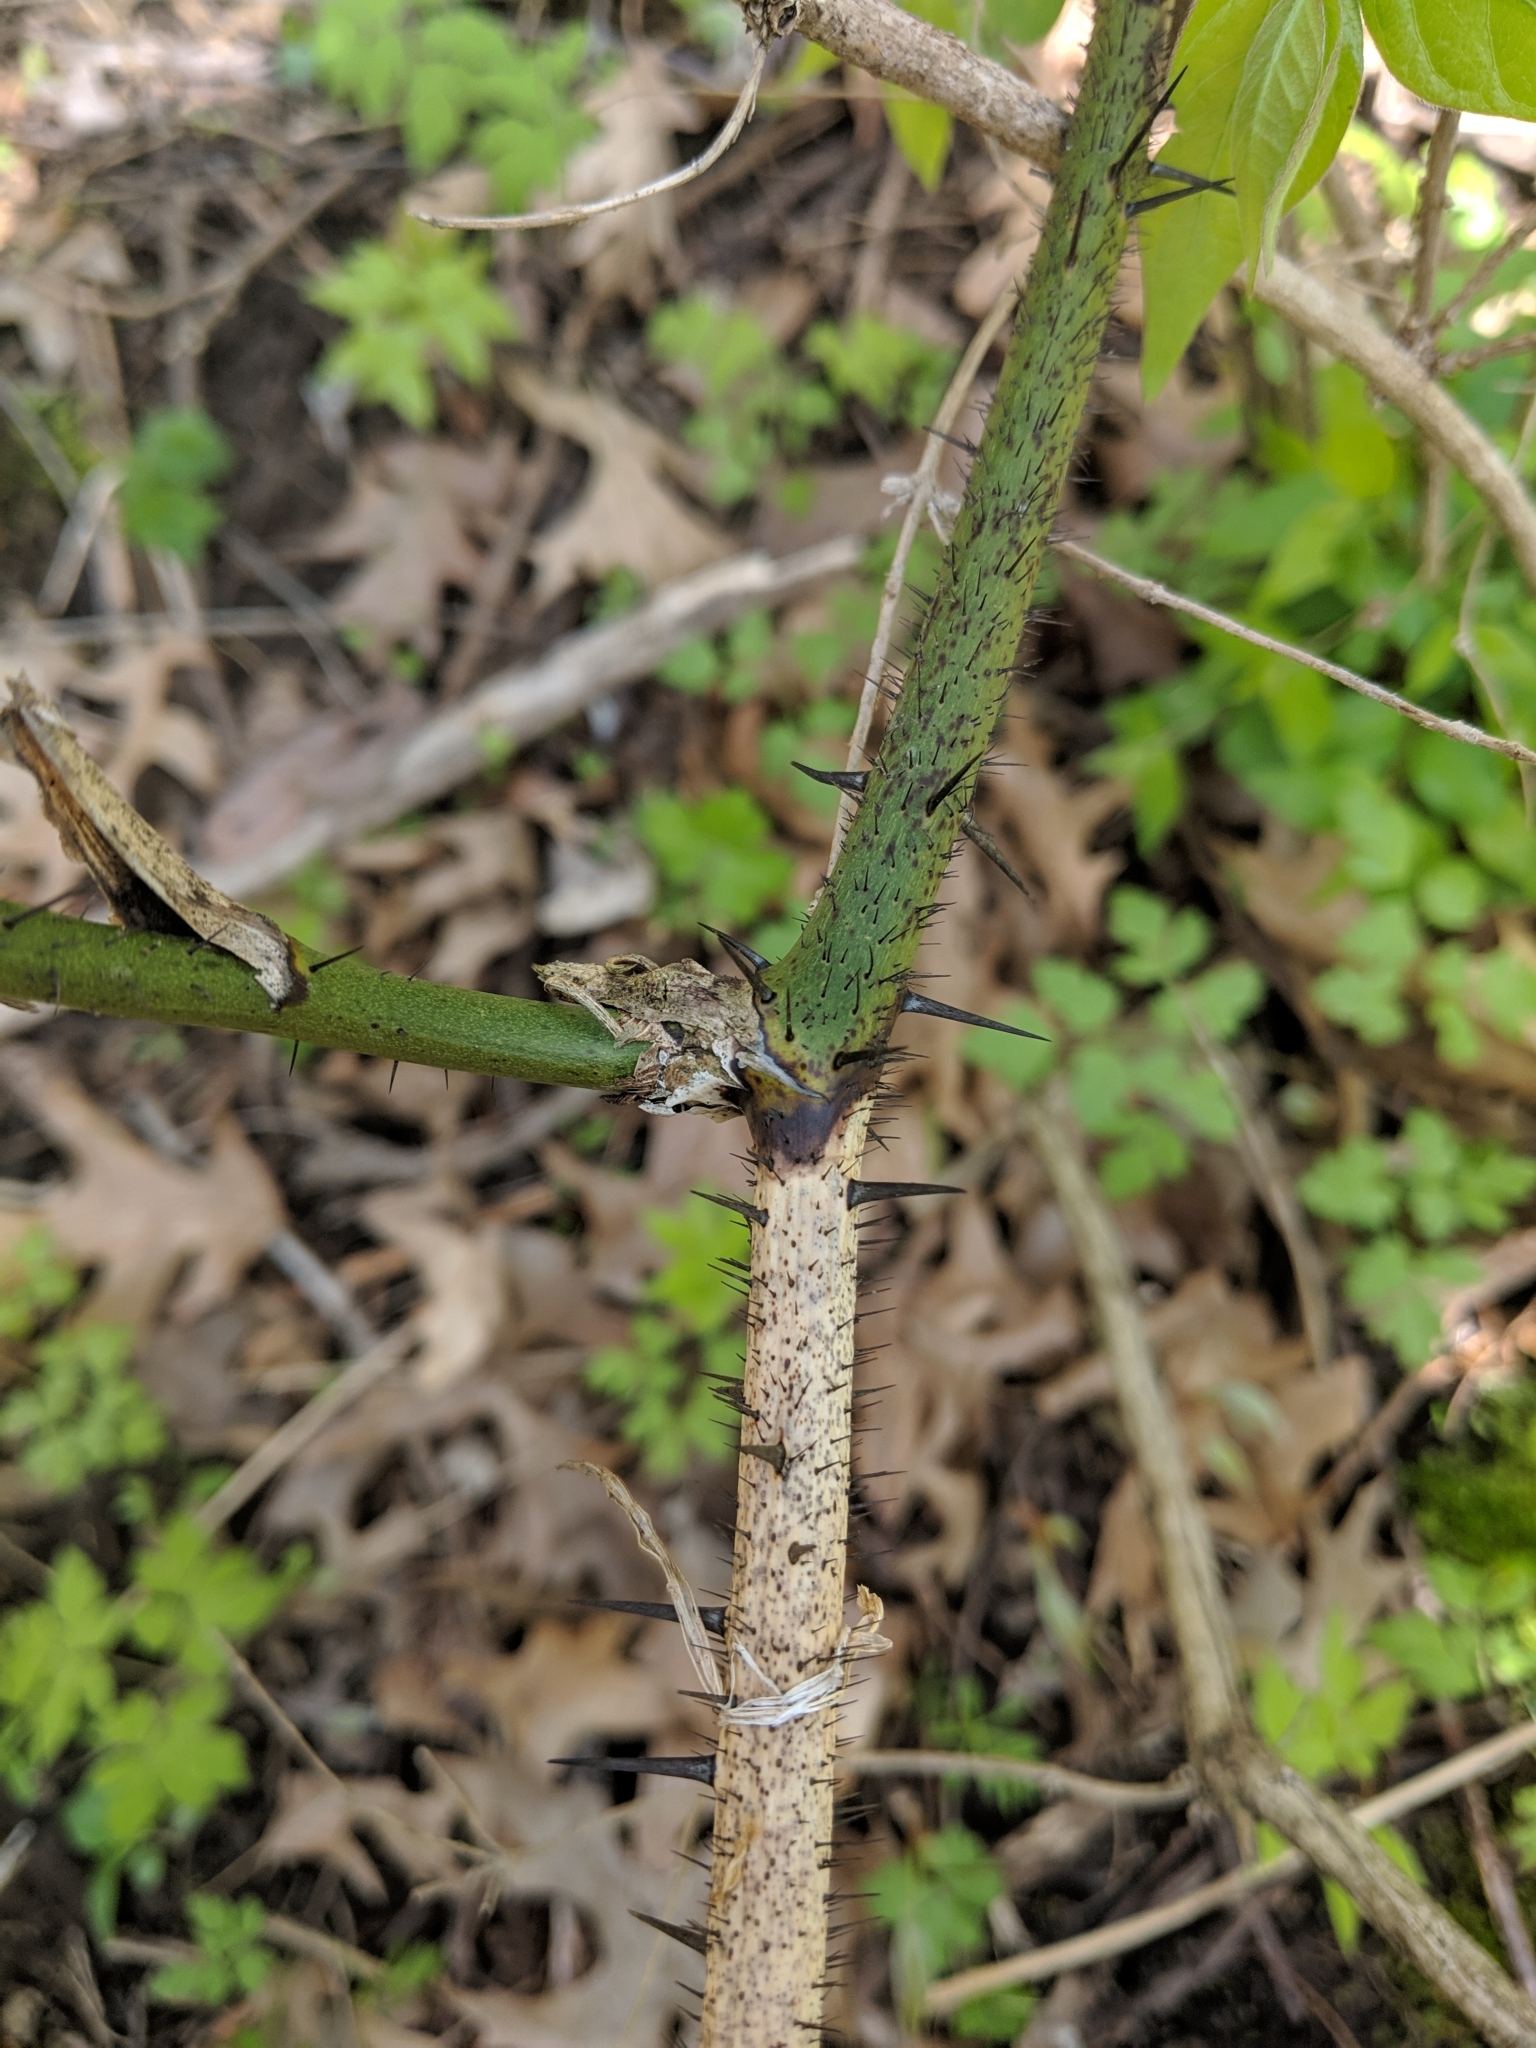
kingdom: Plantae
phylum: Tracheophyta
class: Liliopsida
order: Liliales
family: Smilacaceae
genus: Smilax
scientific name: Smilax tamnoides
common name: Hellfetter
